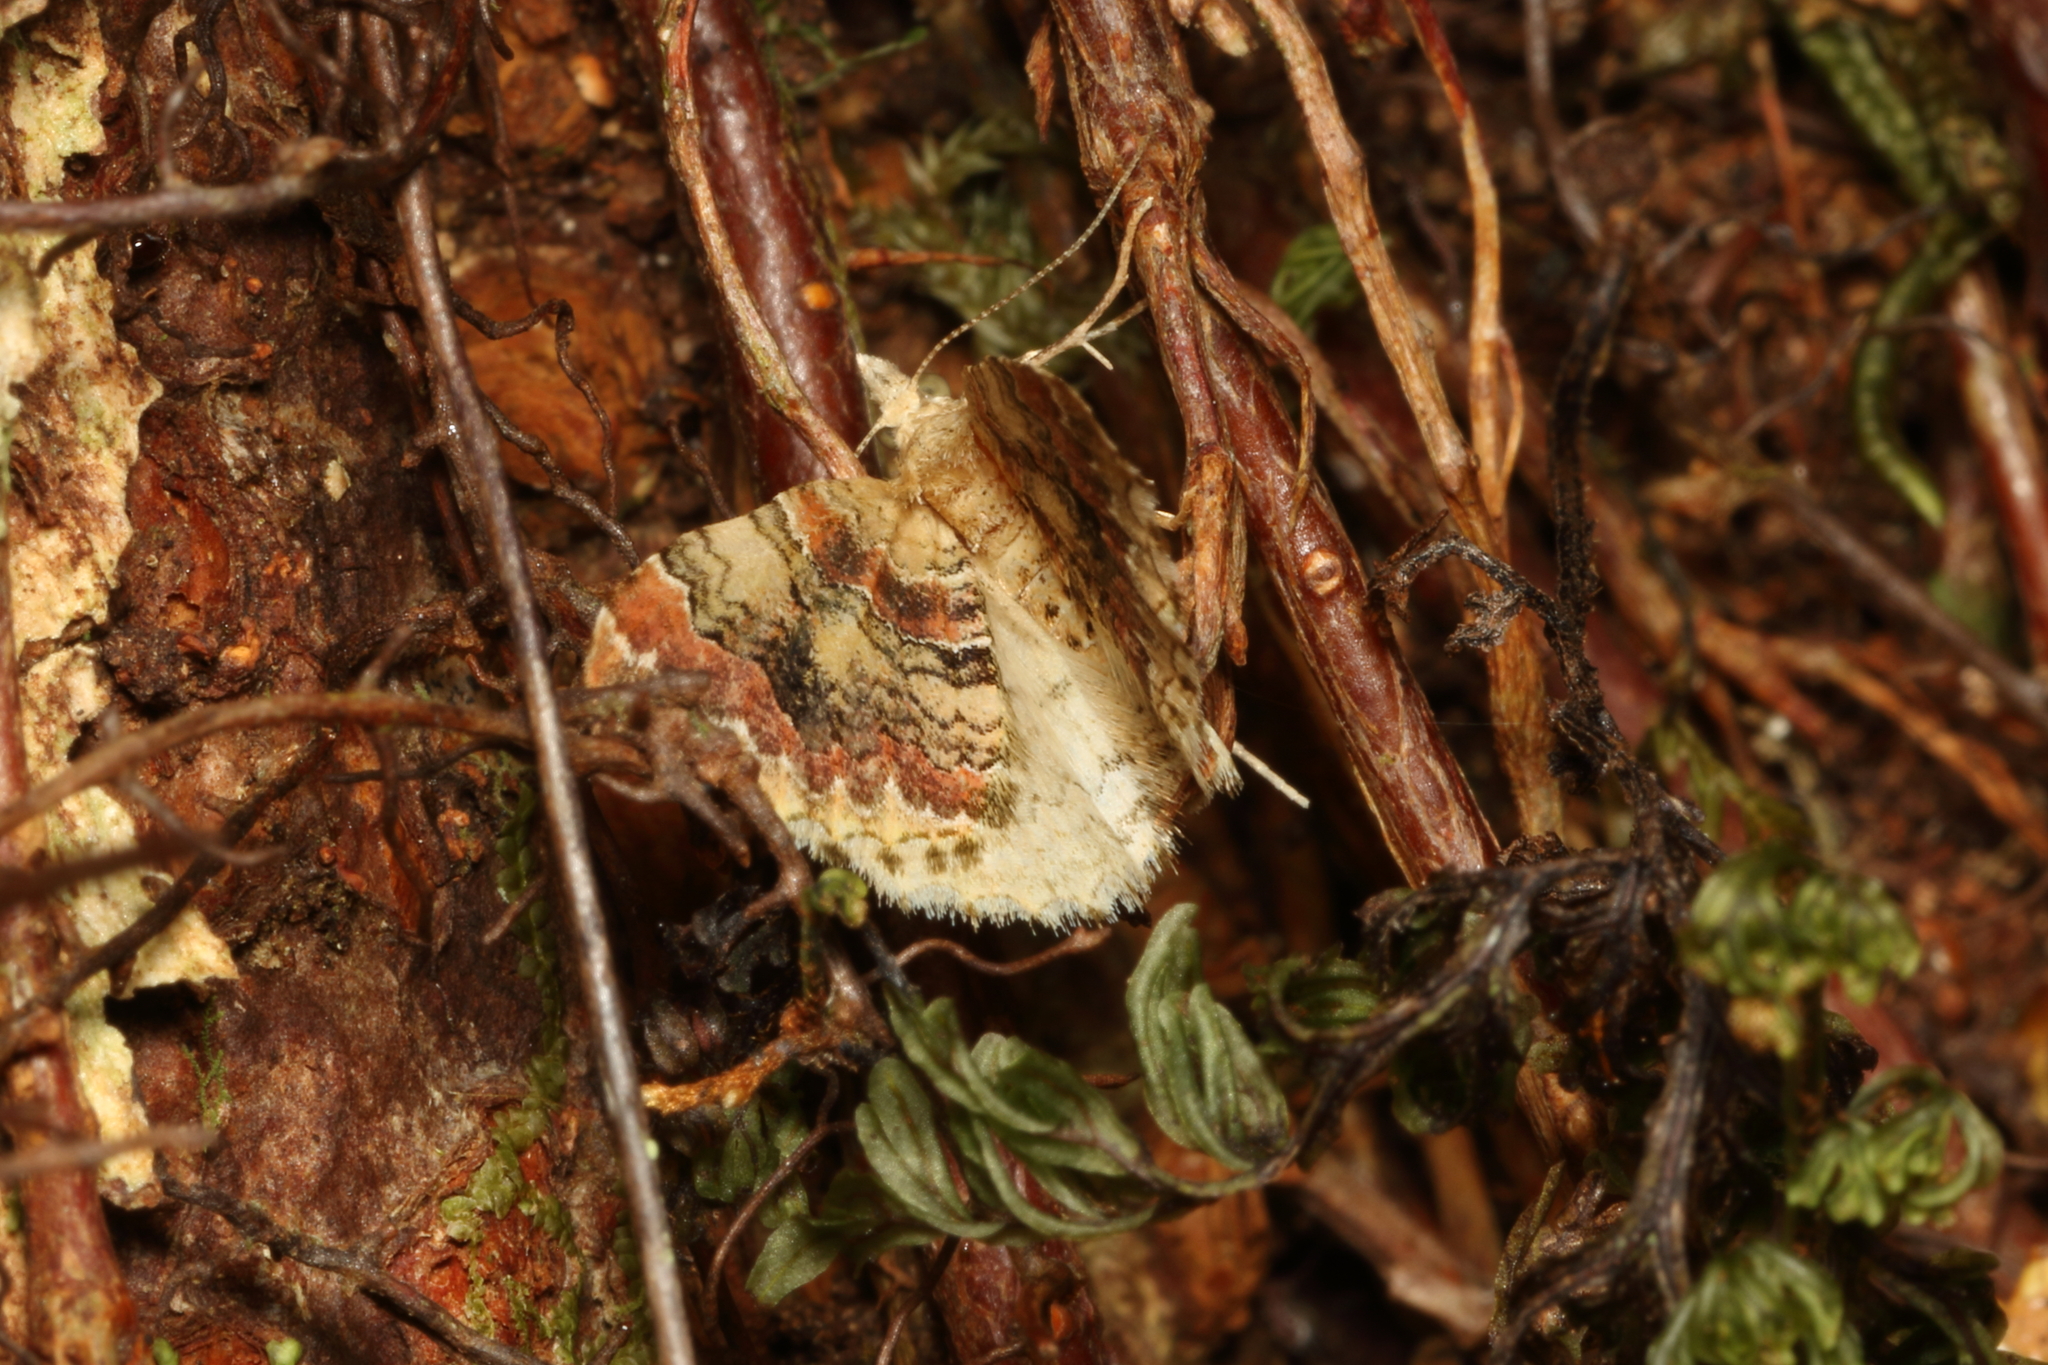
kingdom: Animalia
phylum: Arthropoda
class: Insecta
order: Lepidoptera
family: Geometridae
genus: Helastia
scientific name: Helastia cymozeucta
